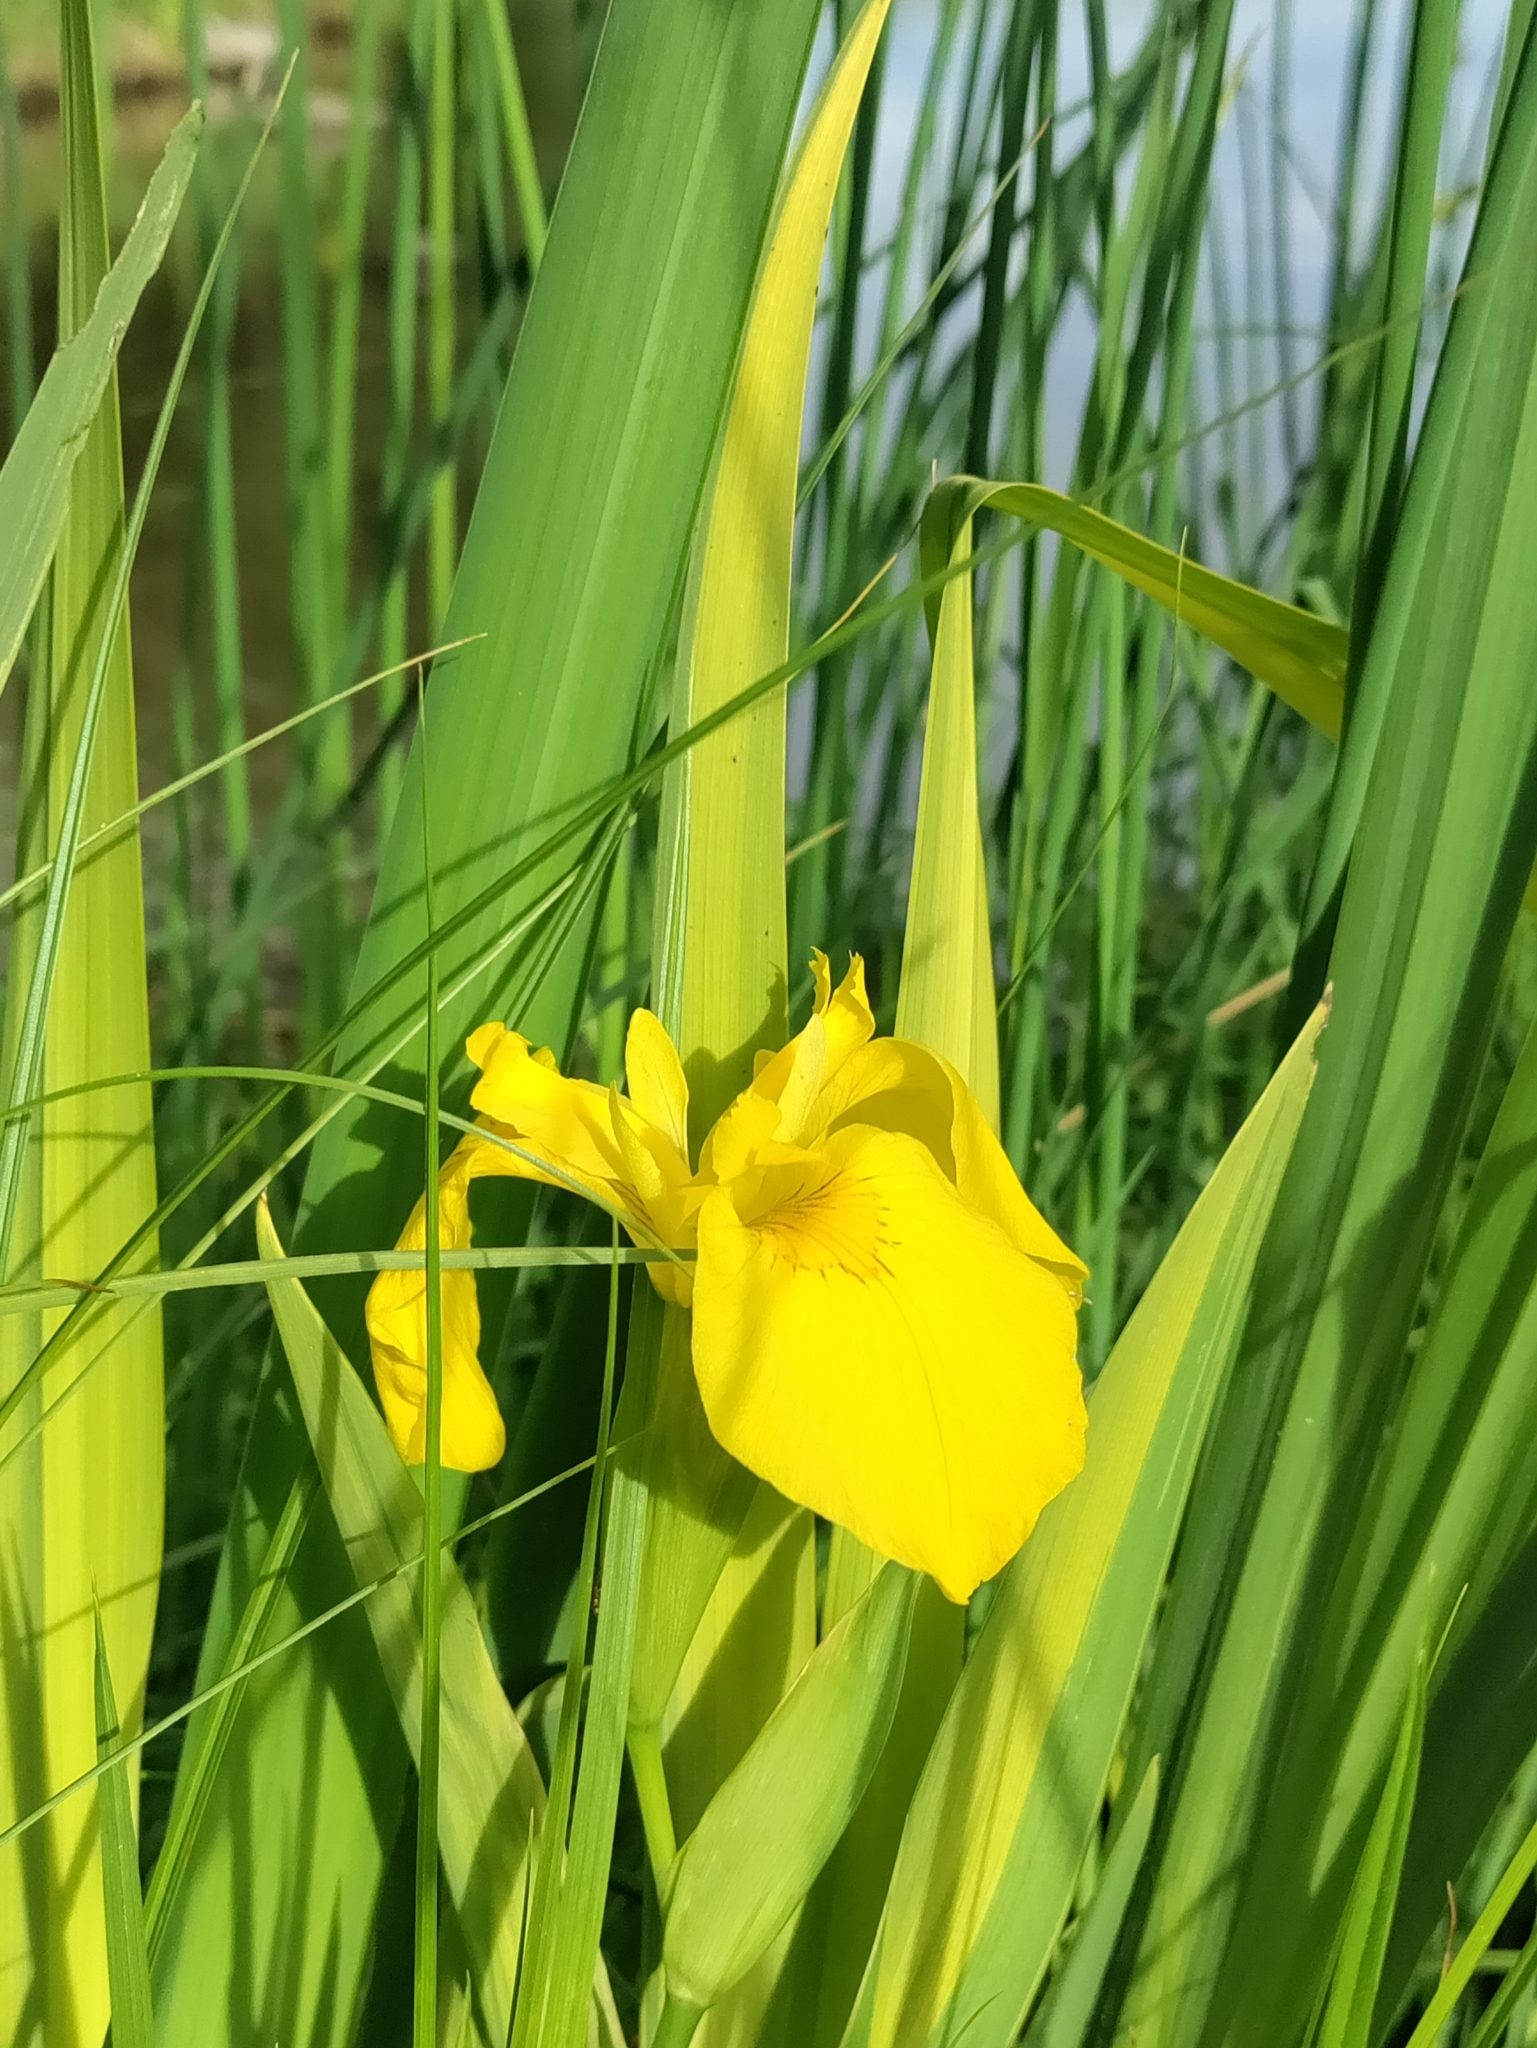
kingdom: Plantae
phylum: Tracheophyta
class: Liliopsida
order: Asparagales
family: Iridaceae
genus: Iris
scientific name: Iris pseudacorus
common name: Yellow flag
